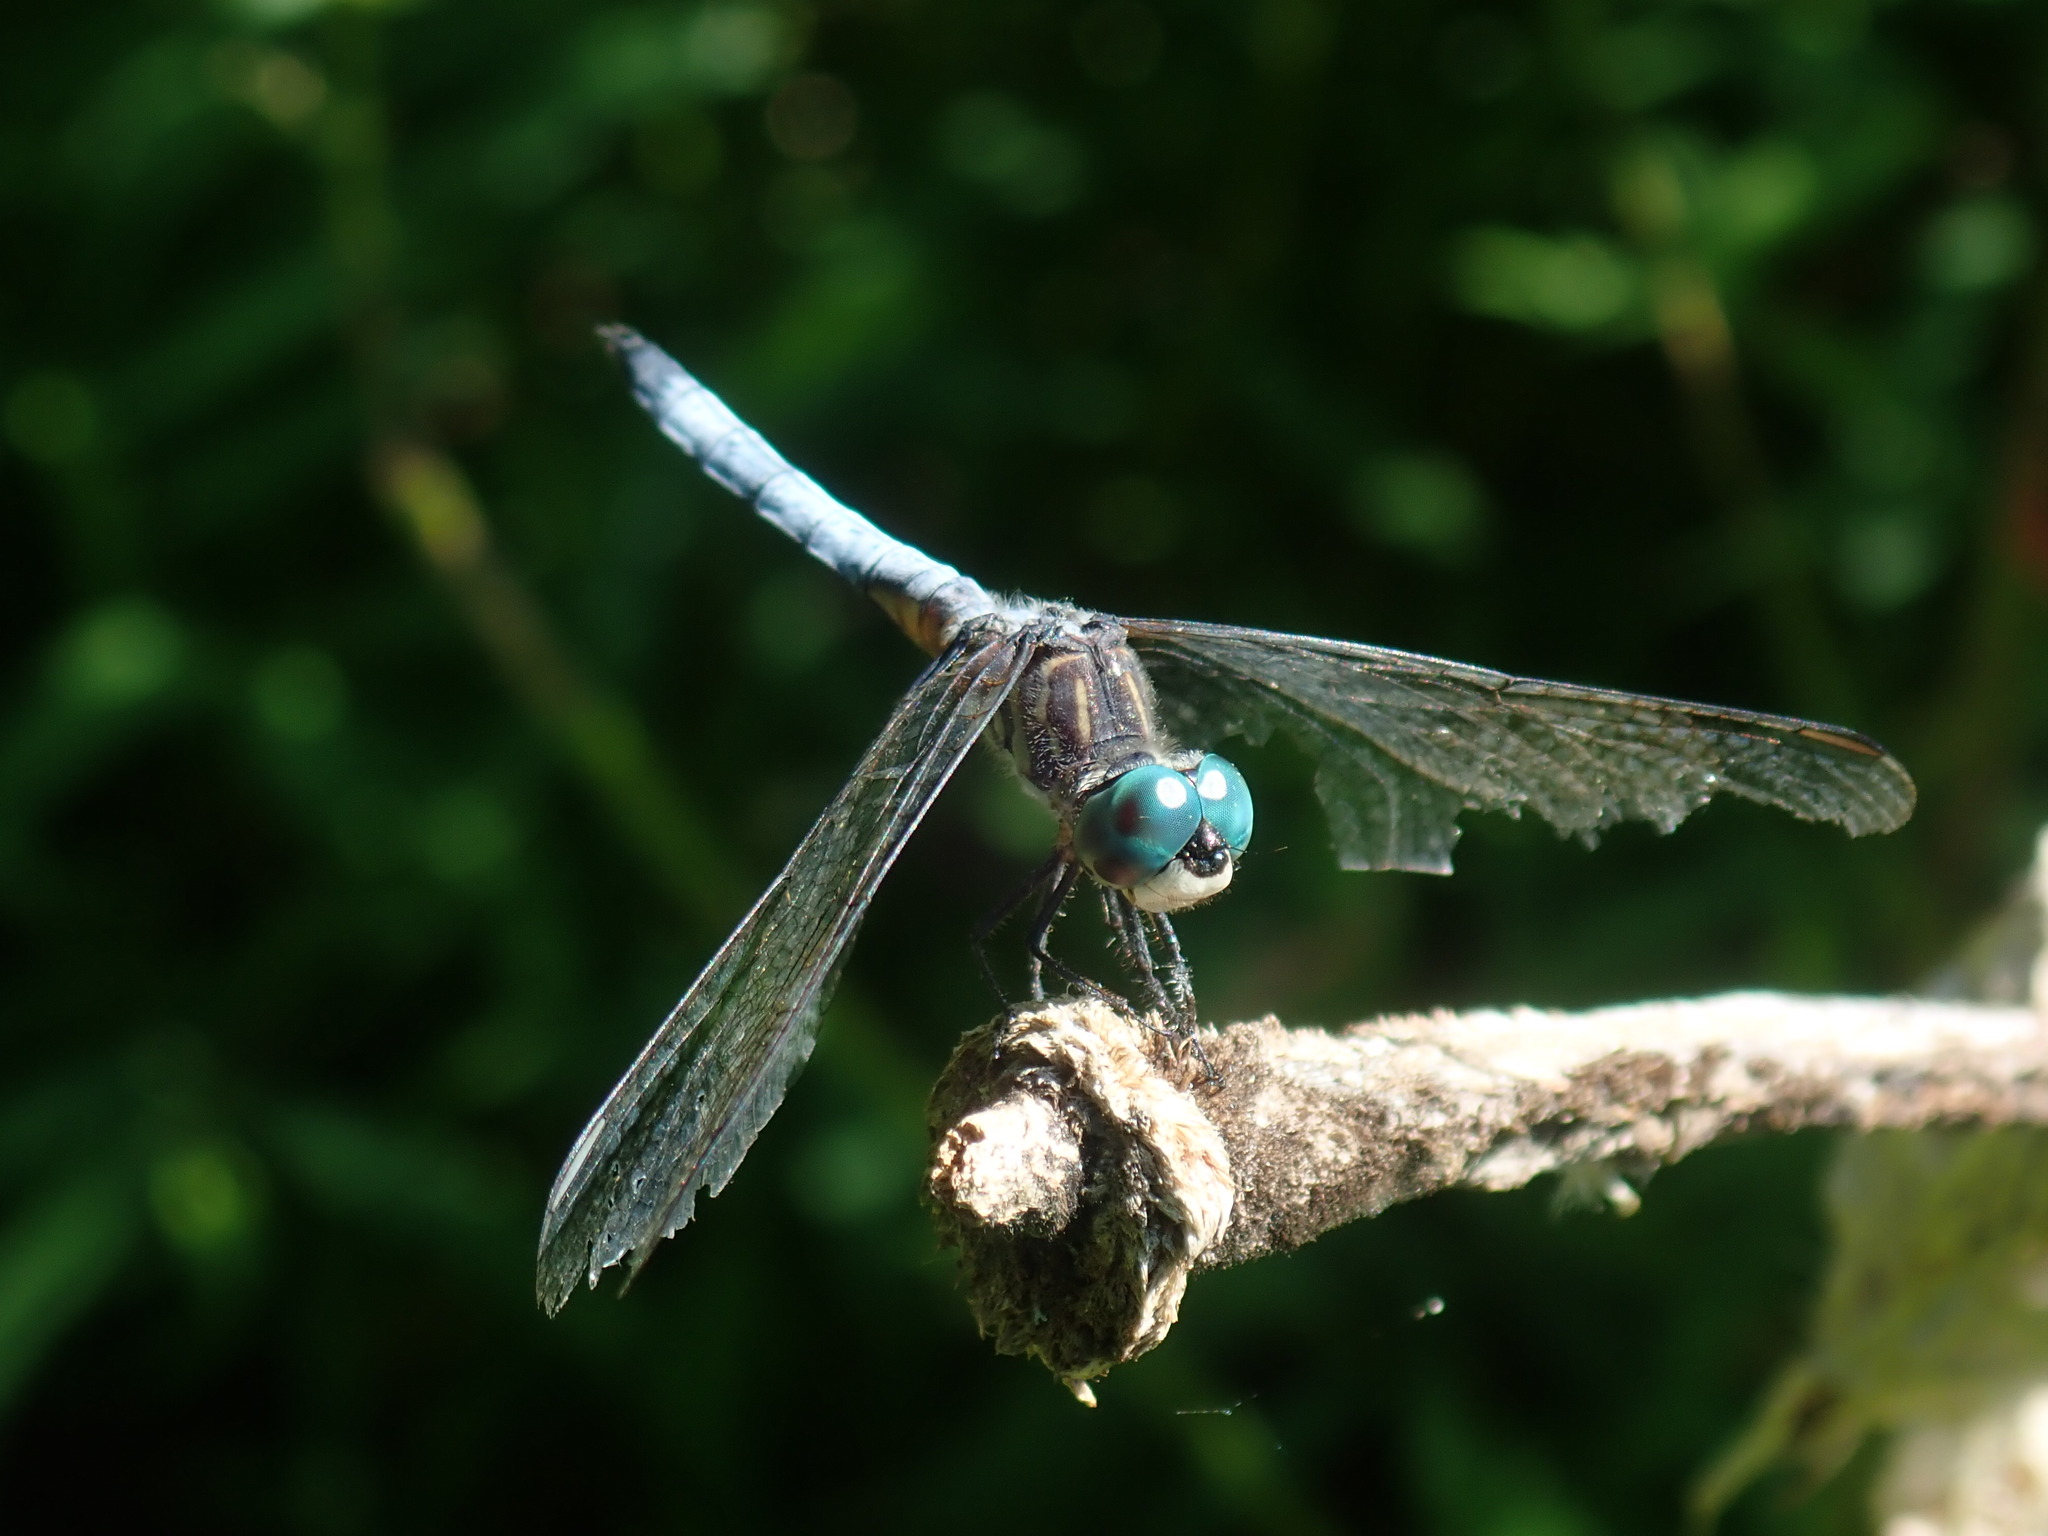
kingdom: Animalia
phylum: Arthropoda
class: Insecta
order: Odonata
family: Libellulidae
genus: Pachydiplax
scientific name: Pachydiplax longipennis
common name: Blue dasher
